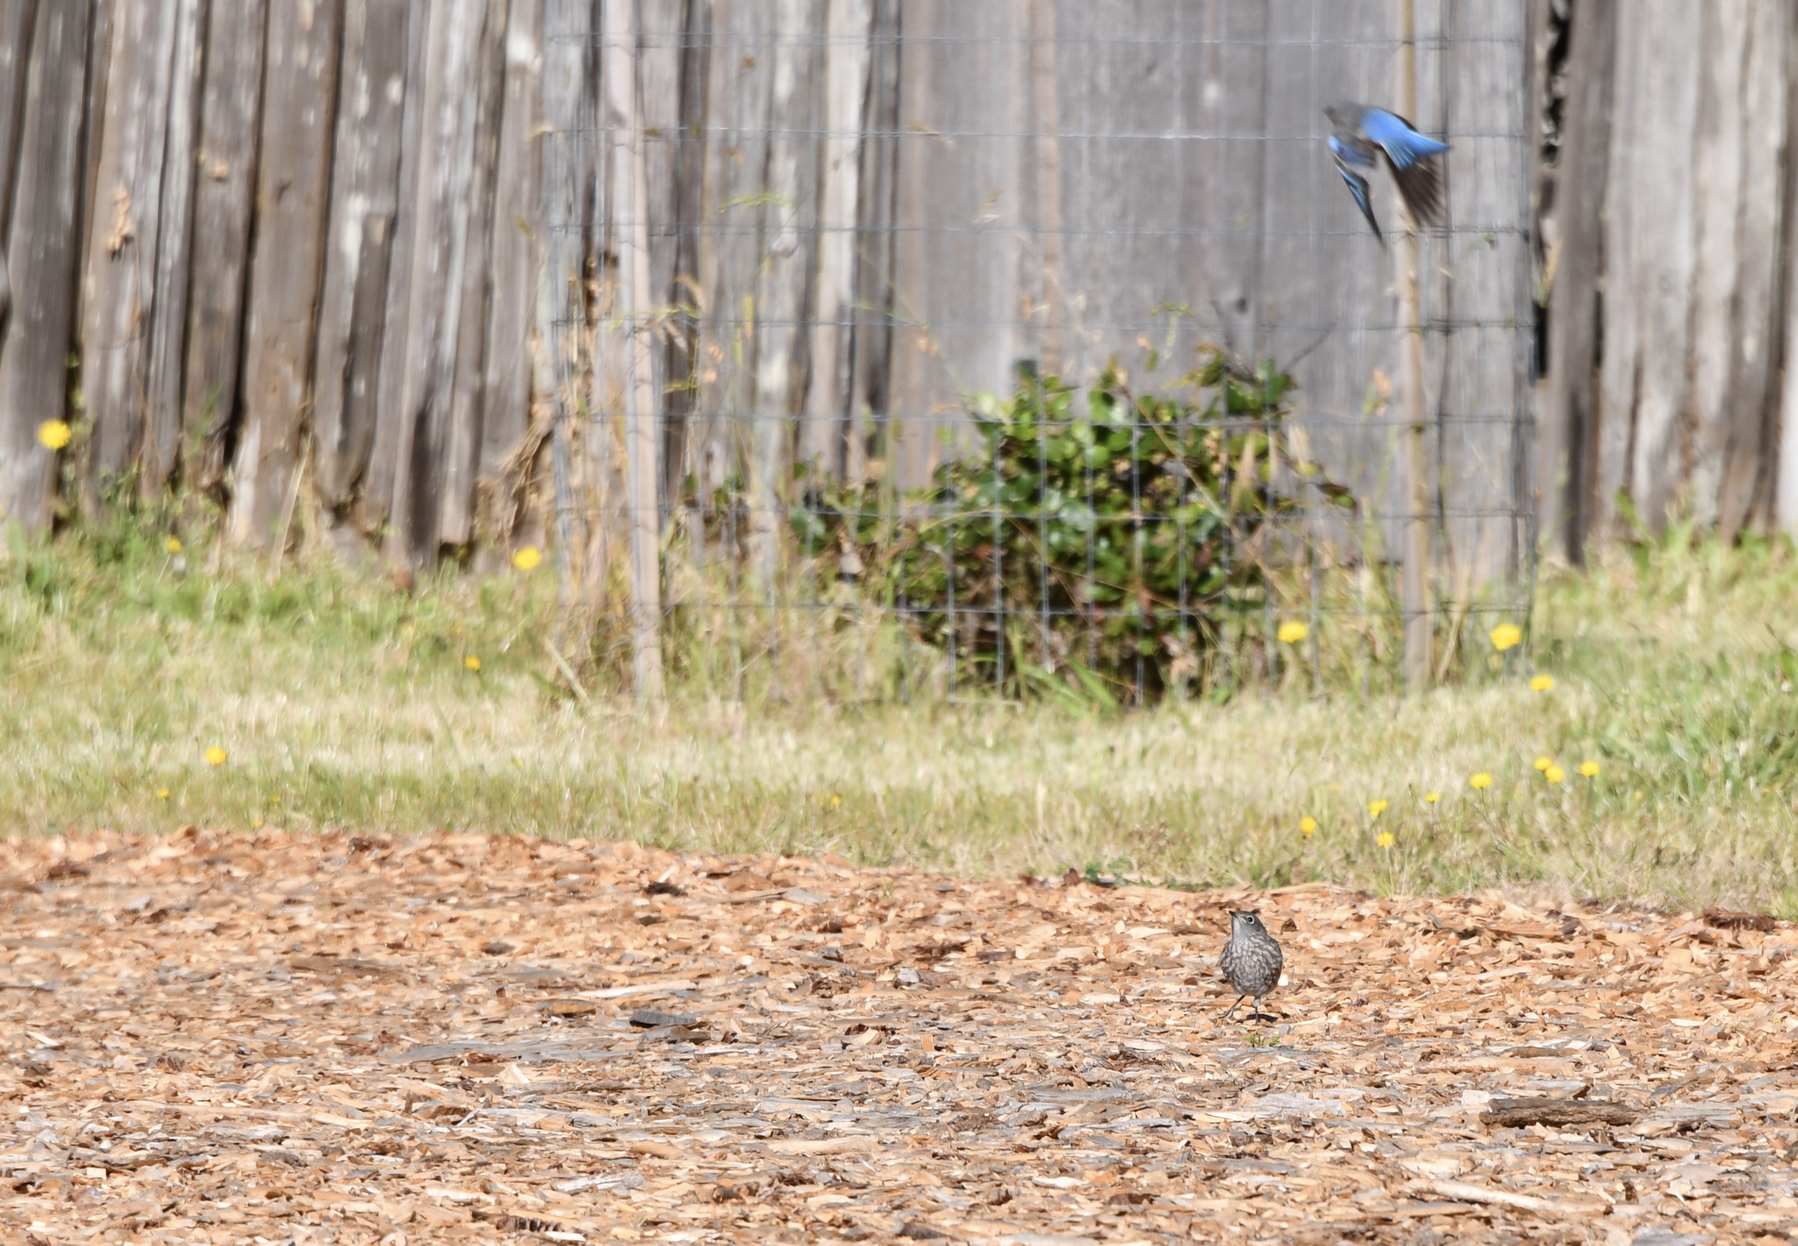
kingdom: Animalia
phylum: Chordata
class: Aves
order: Passeriformes
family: Turdidae
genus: Sialia
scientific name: Sialia mexicana
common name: Western bluebird
